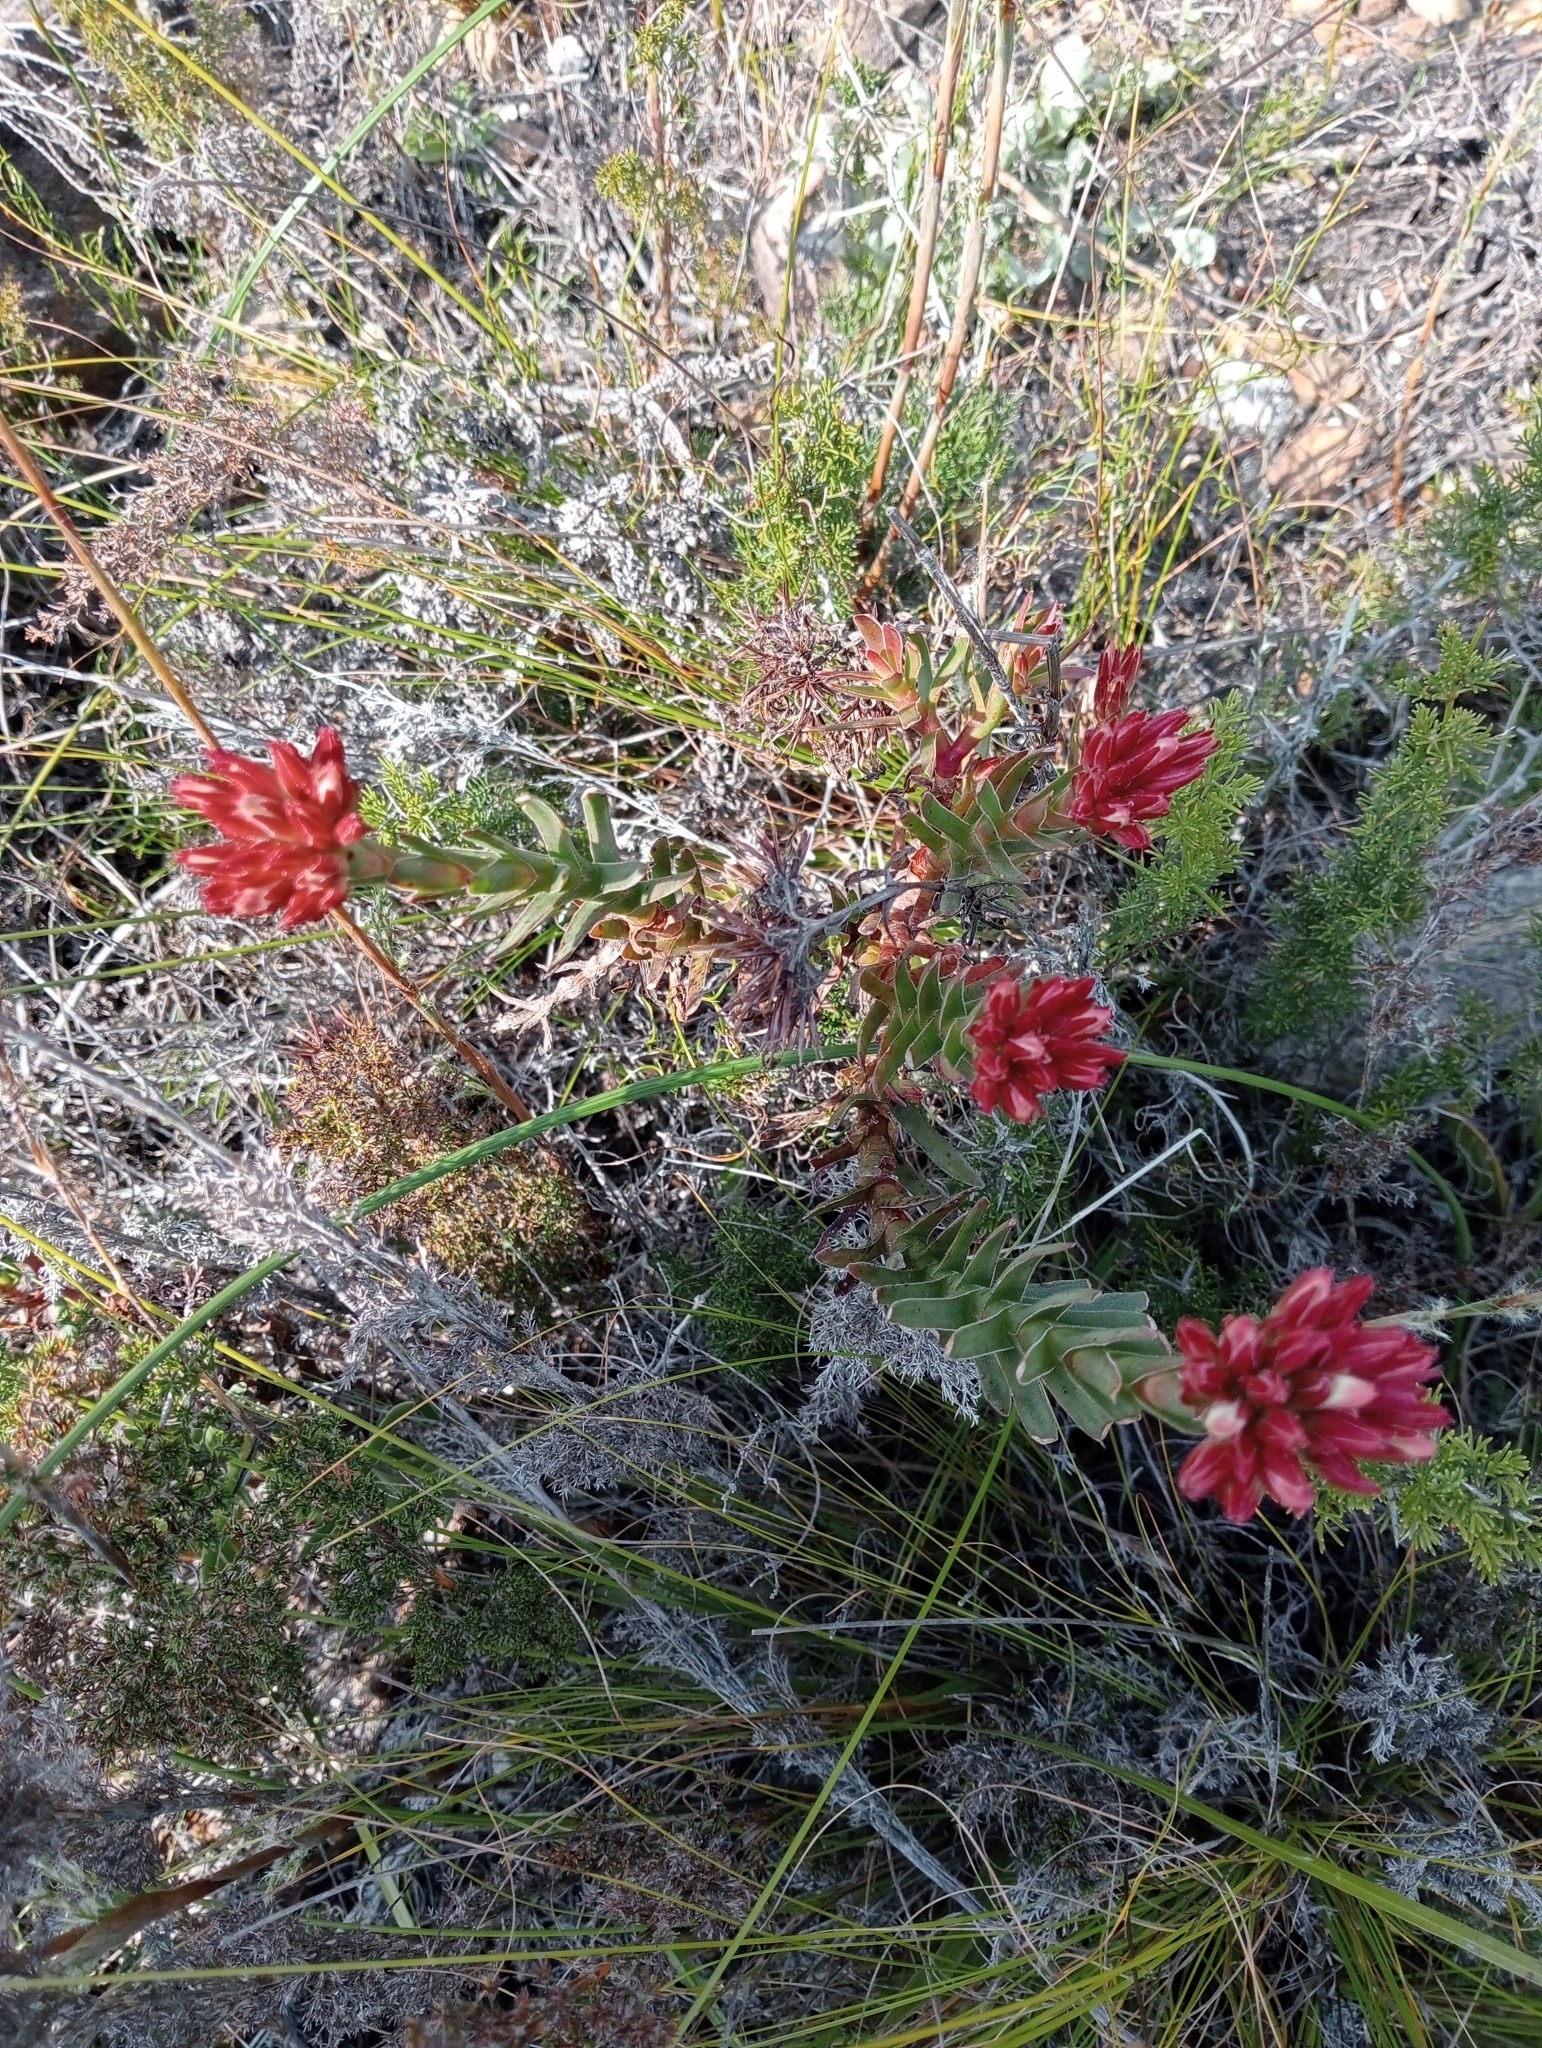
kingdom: Plantae
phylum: Tracheophyta
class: Magnoliopsida
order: Saxifragales
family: Crassulaceae
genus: Crassula
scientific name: Crassula fascicularis
